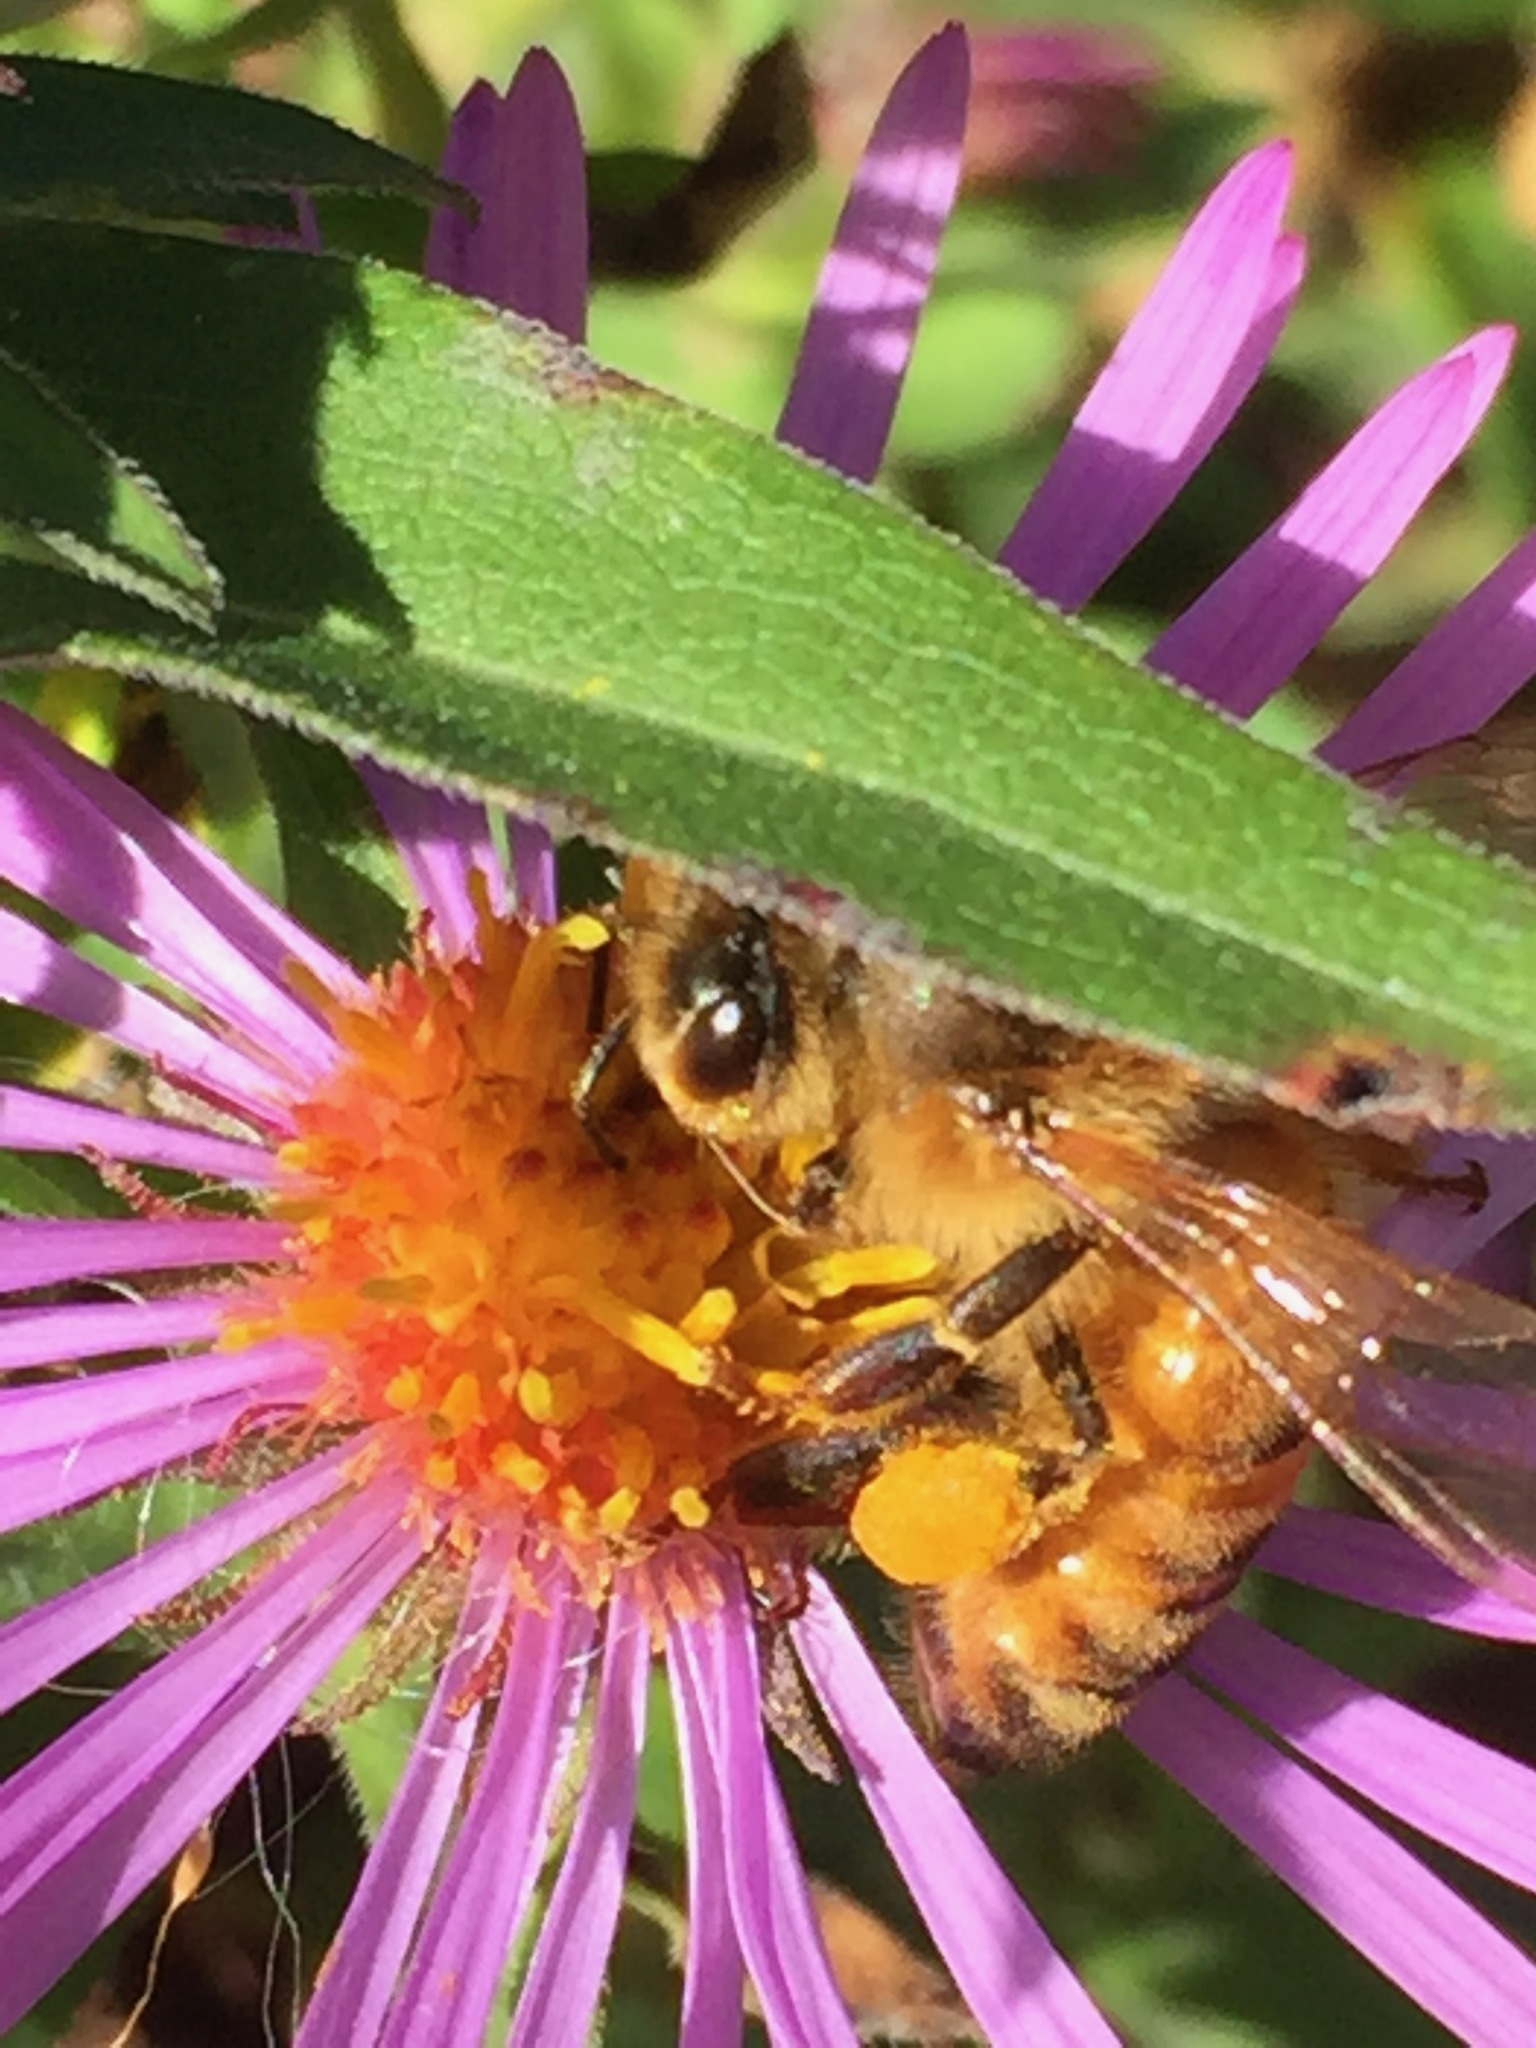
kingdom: Animalia
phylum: Arthropoda
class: Insecta
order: Hymenoptera
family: Apidae
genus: Apis
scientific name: Apis mellifera
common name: Honey bee
